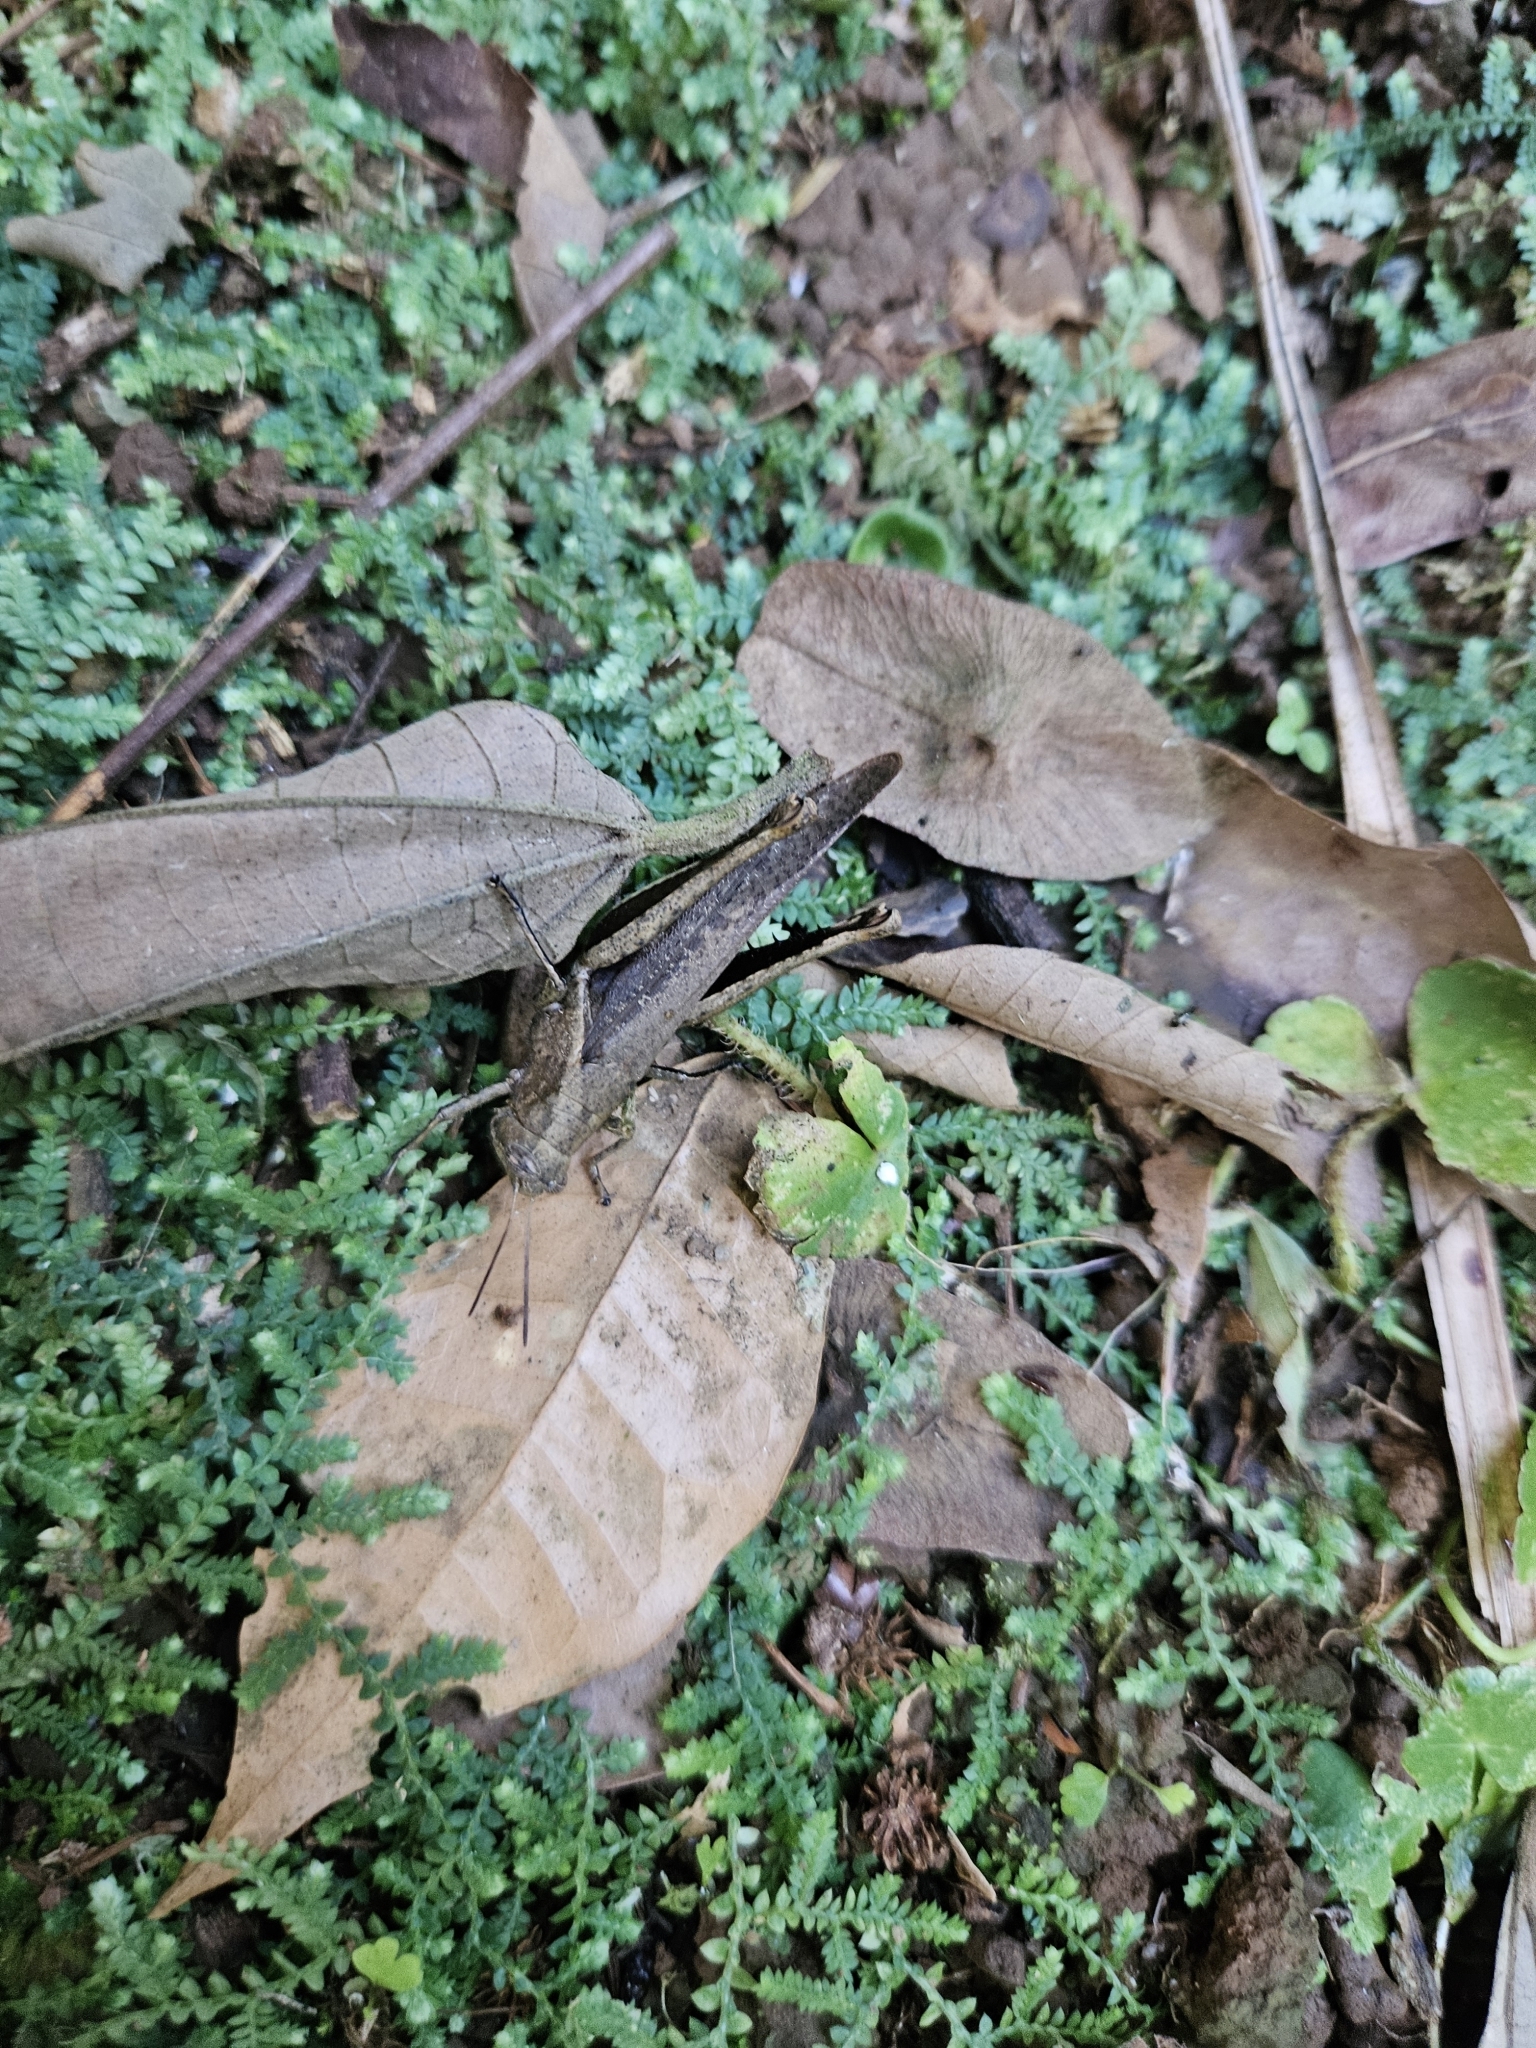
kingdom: Animalia
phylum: Arthropoda
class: Insecta
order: Orthoptera
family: Acrididae
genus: Abracris
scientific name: Abracris flavolineata
